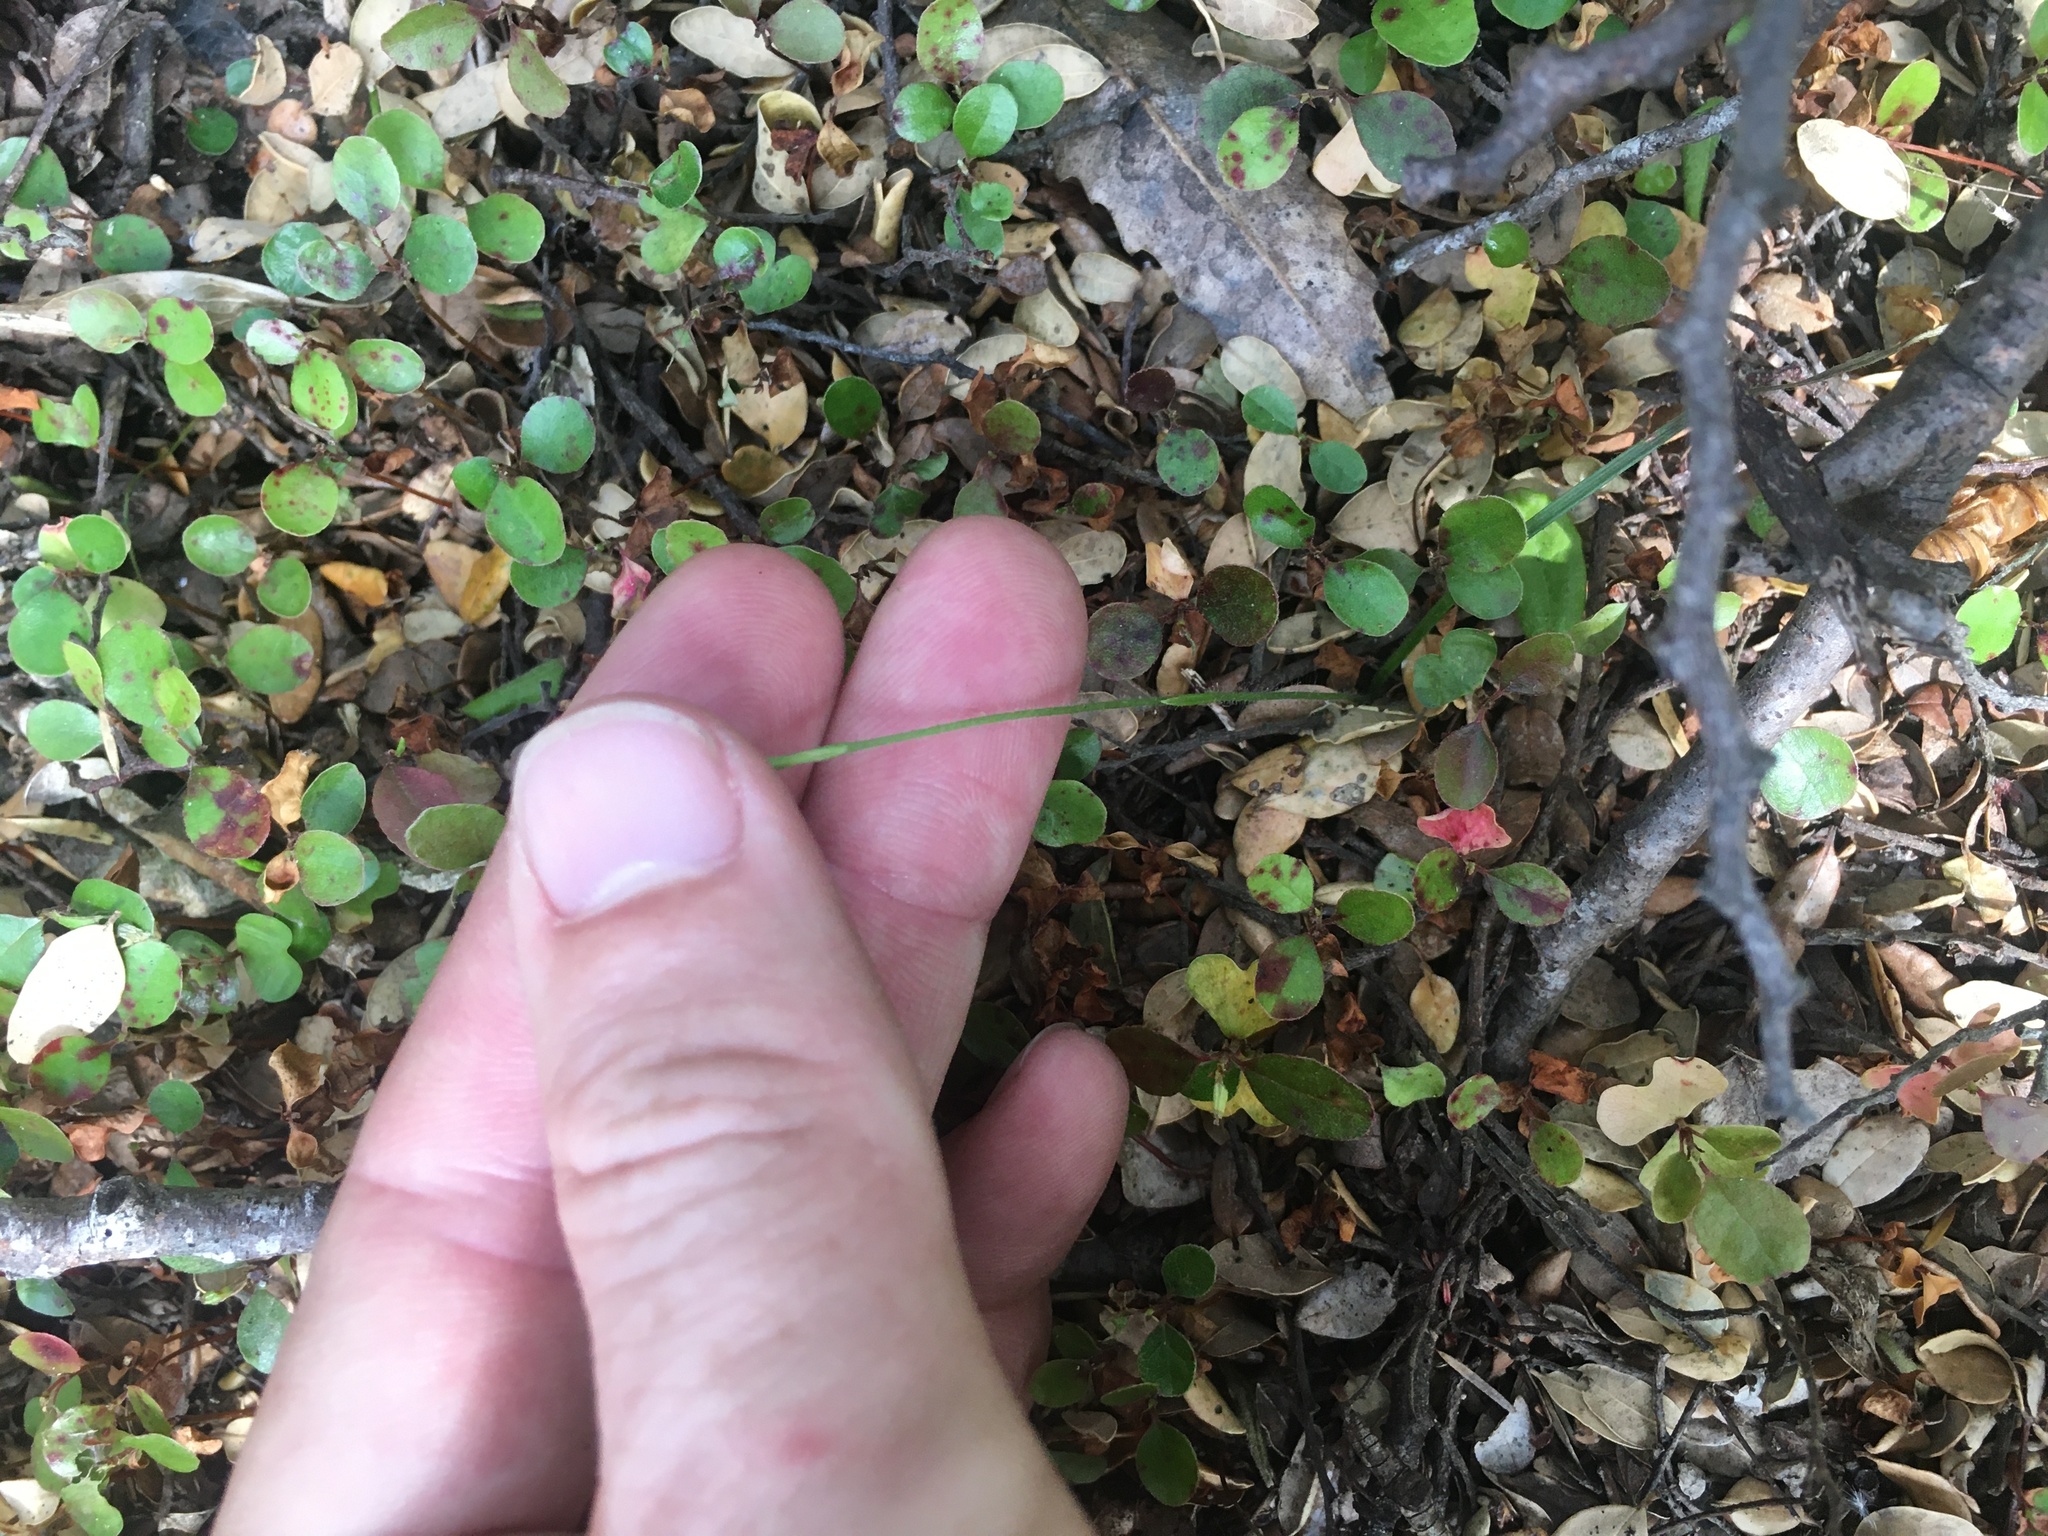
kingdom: Plantae
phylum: Tracheophyta
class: Liliopsida
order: Asparagales
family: Orchidaceae
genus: Caladenia
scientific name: Caladenia chlorostyla
